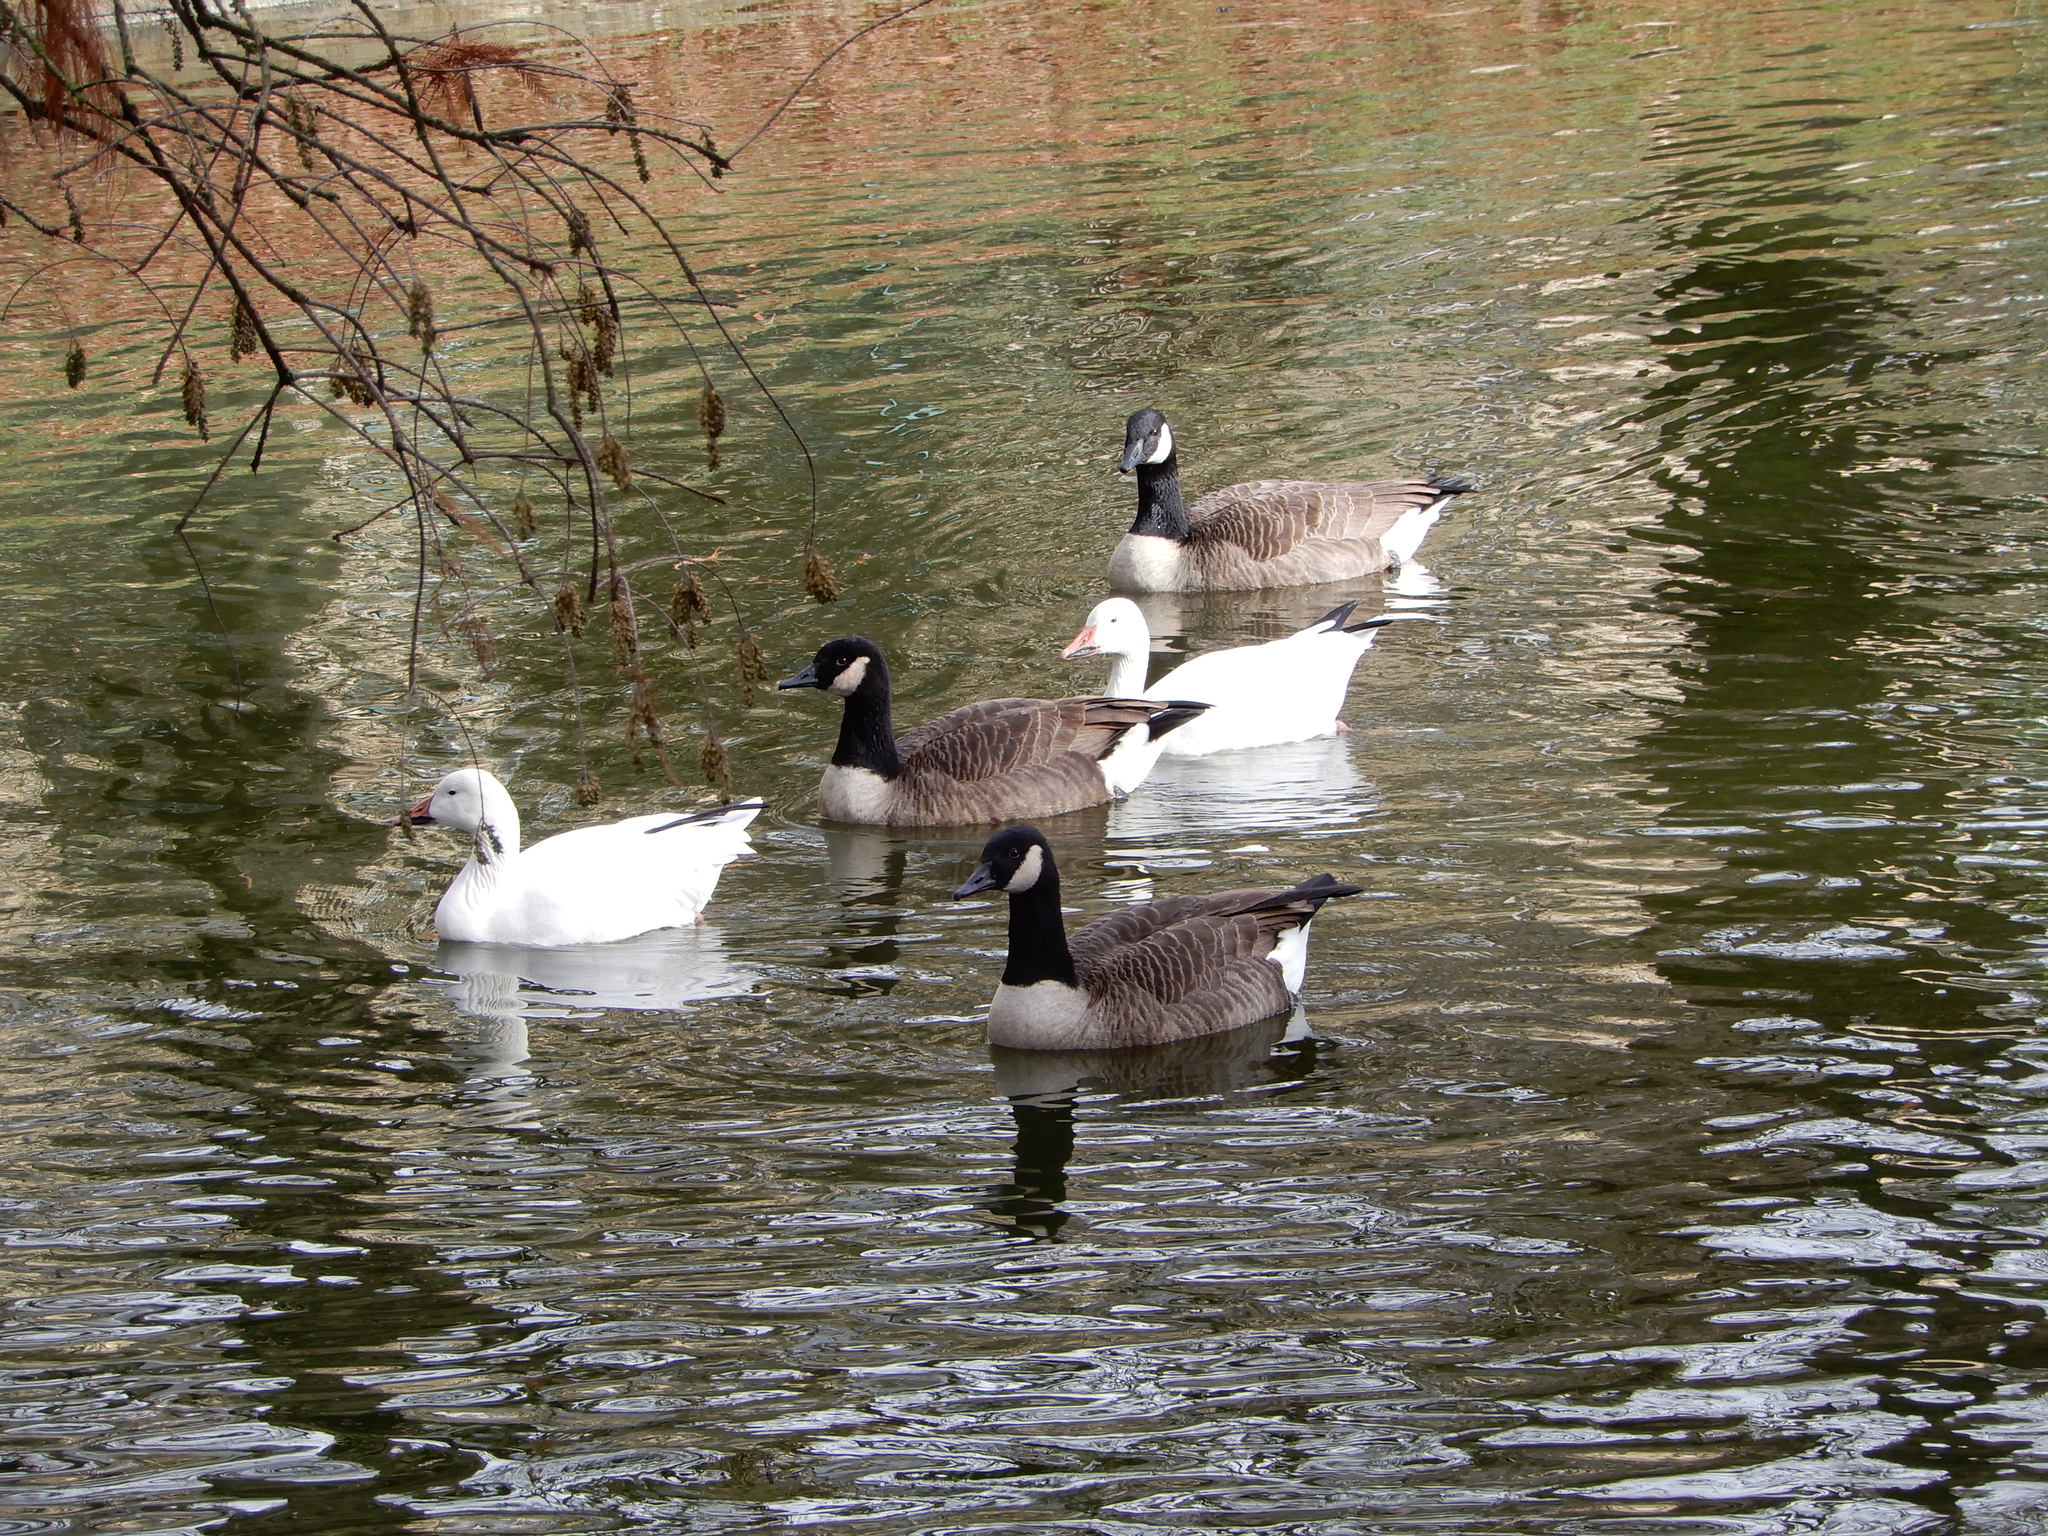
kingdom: Animalia
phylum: Chordata
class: Aves
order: Anseriformes
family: Anatidae
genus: Branta
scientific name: Branta canadensis
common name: Canada goose
